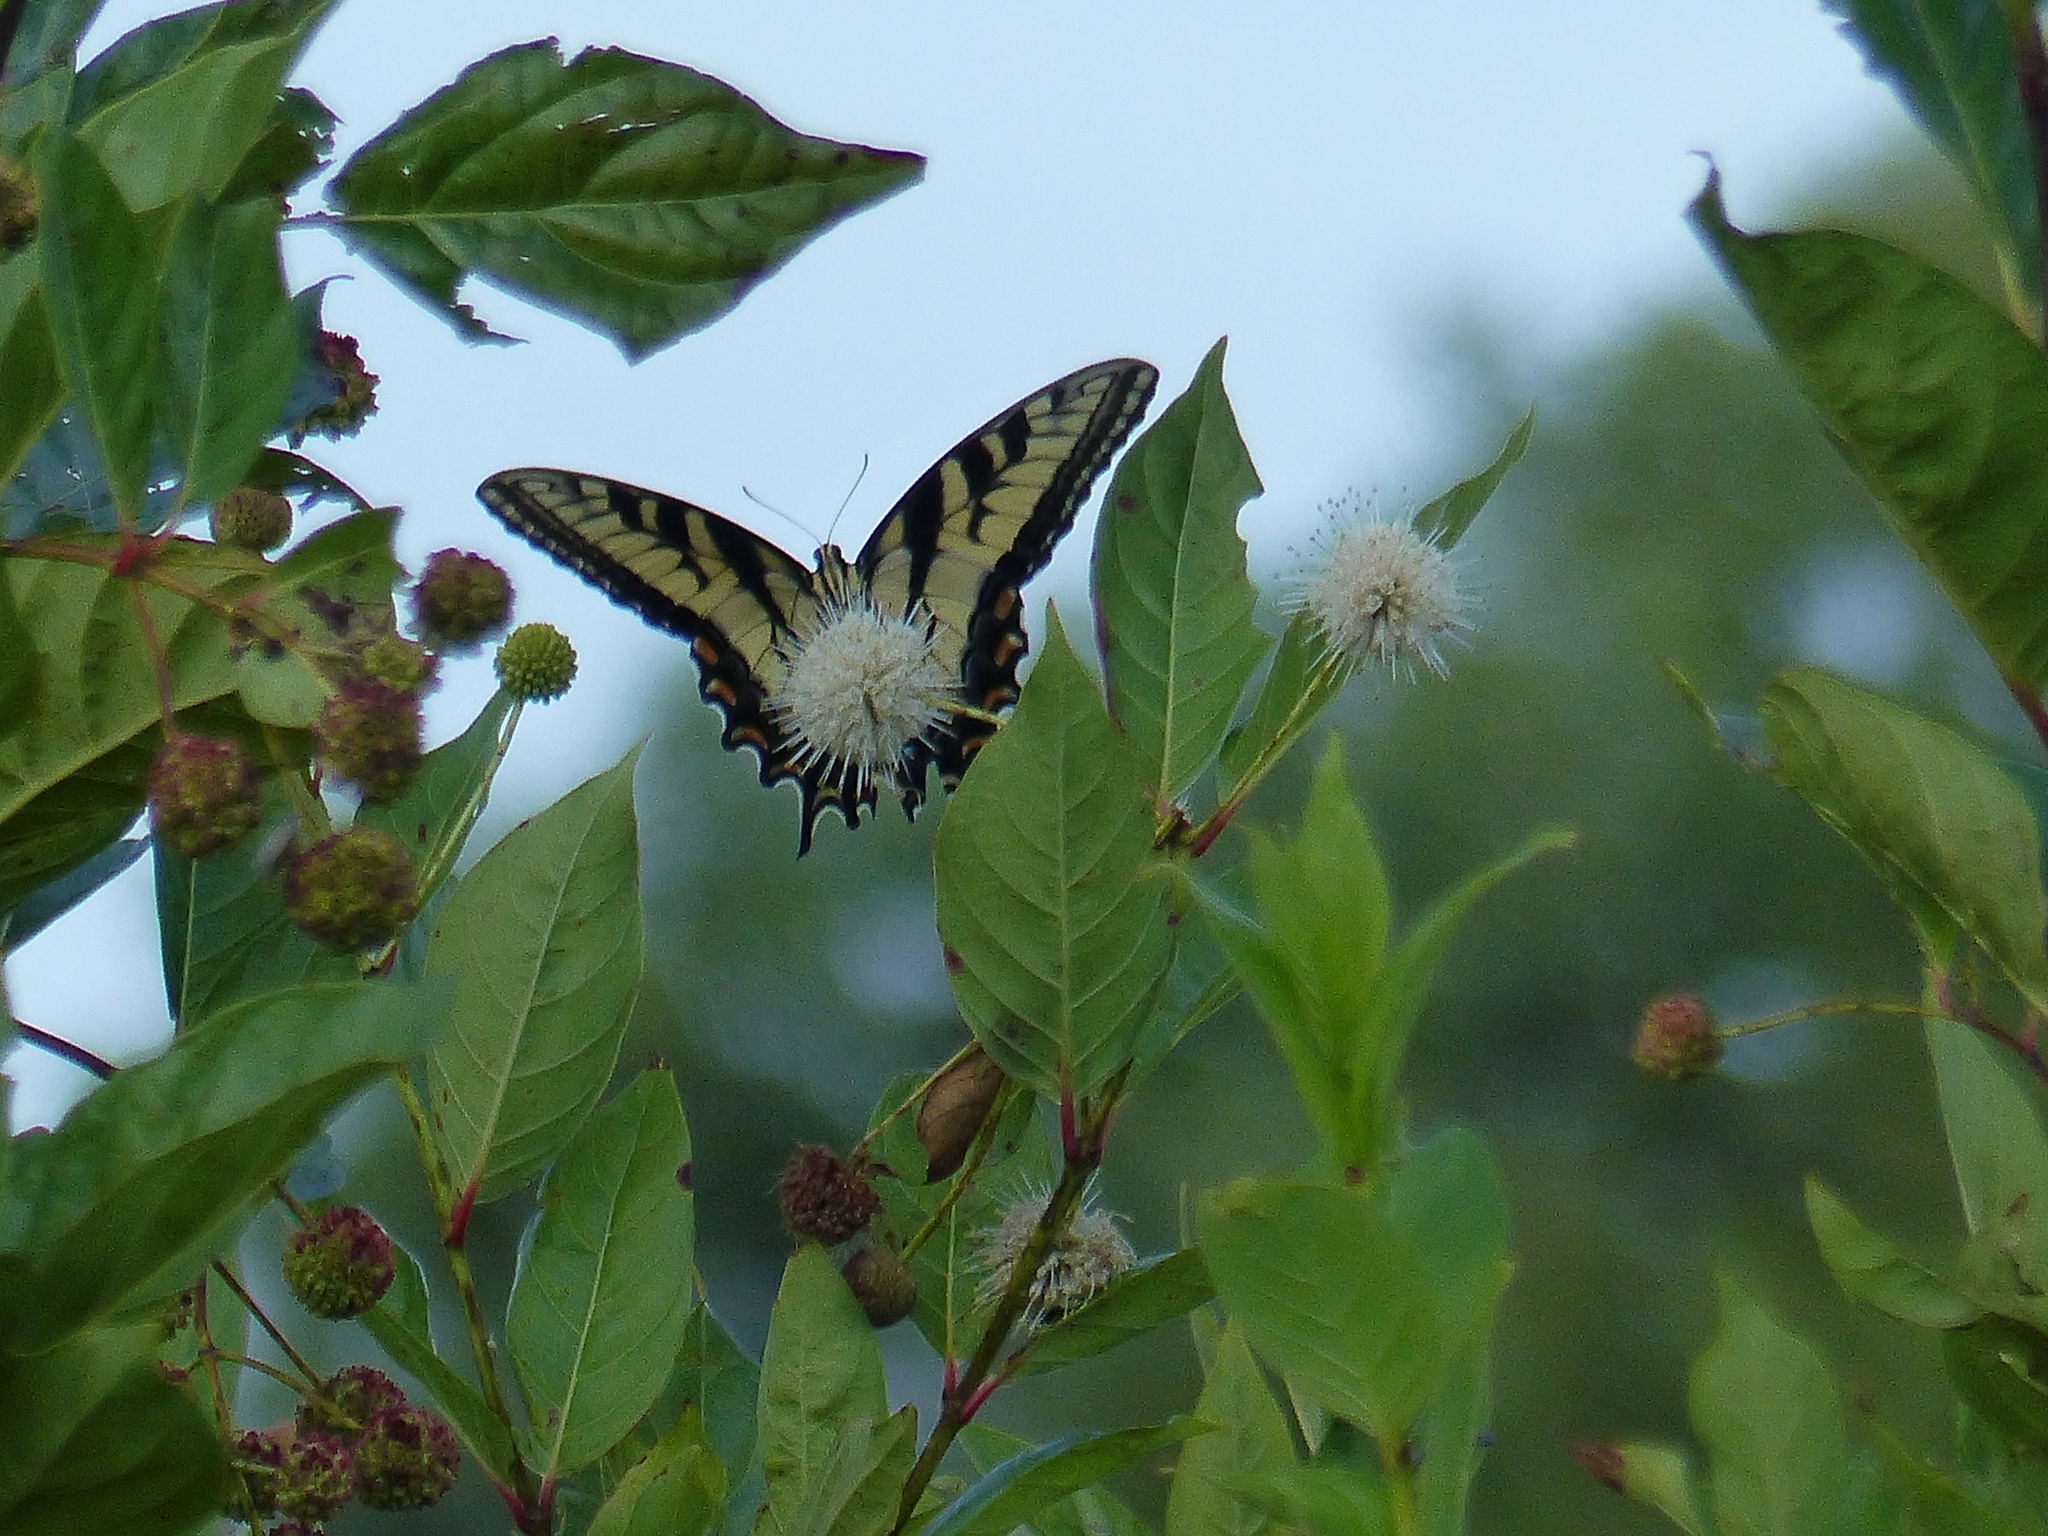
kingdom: Animalia
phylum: Arthropoda
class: Insecta
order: Lepidoptera
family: Papilionidae
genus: Papilio
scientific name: Papilio glaucus
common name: Tiger swallowtail
